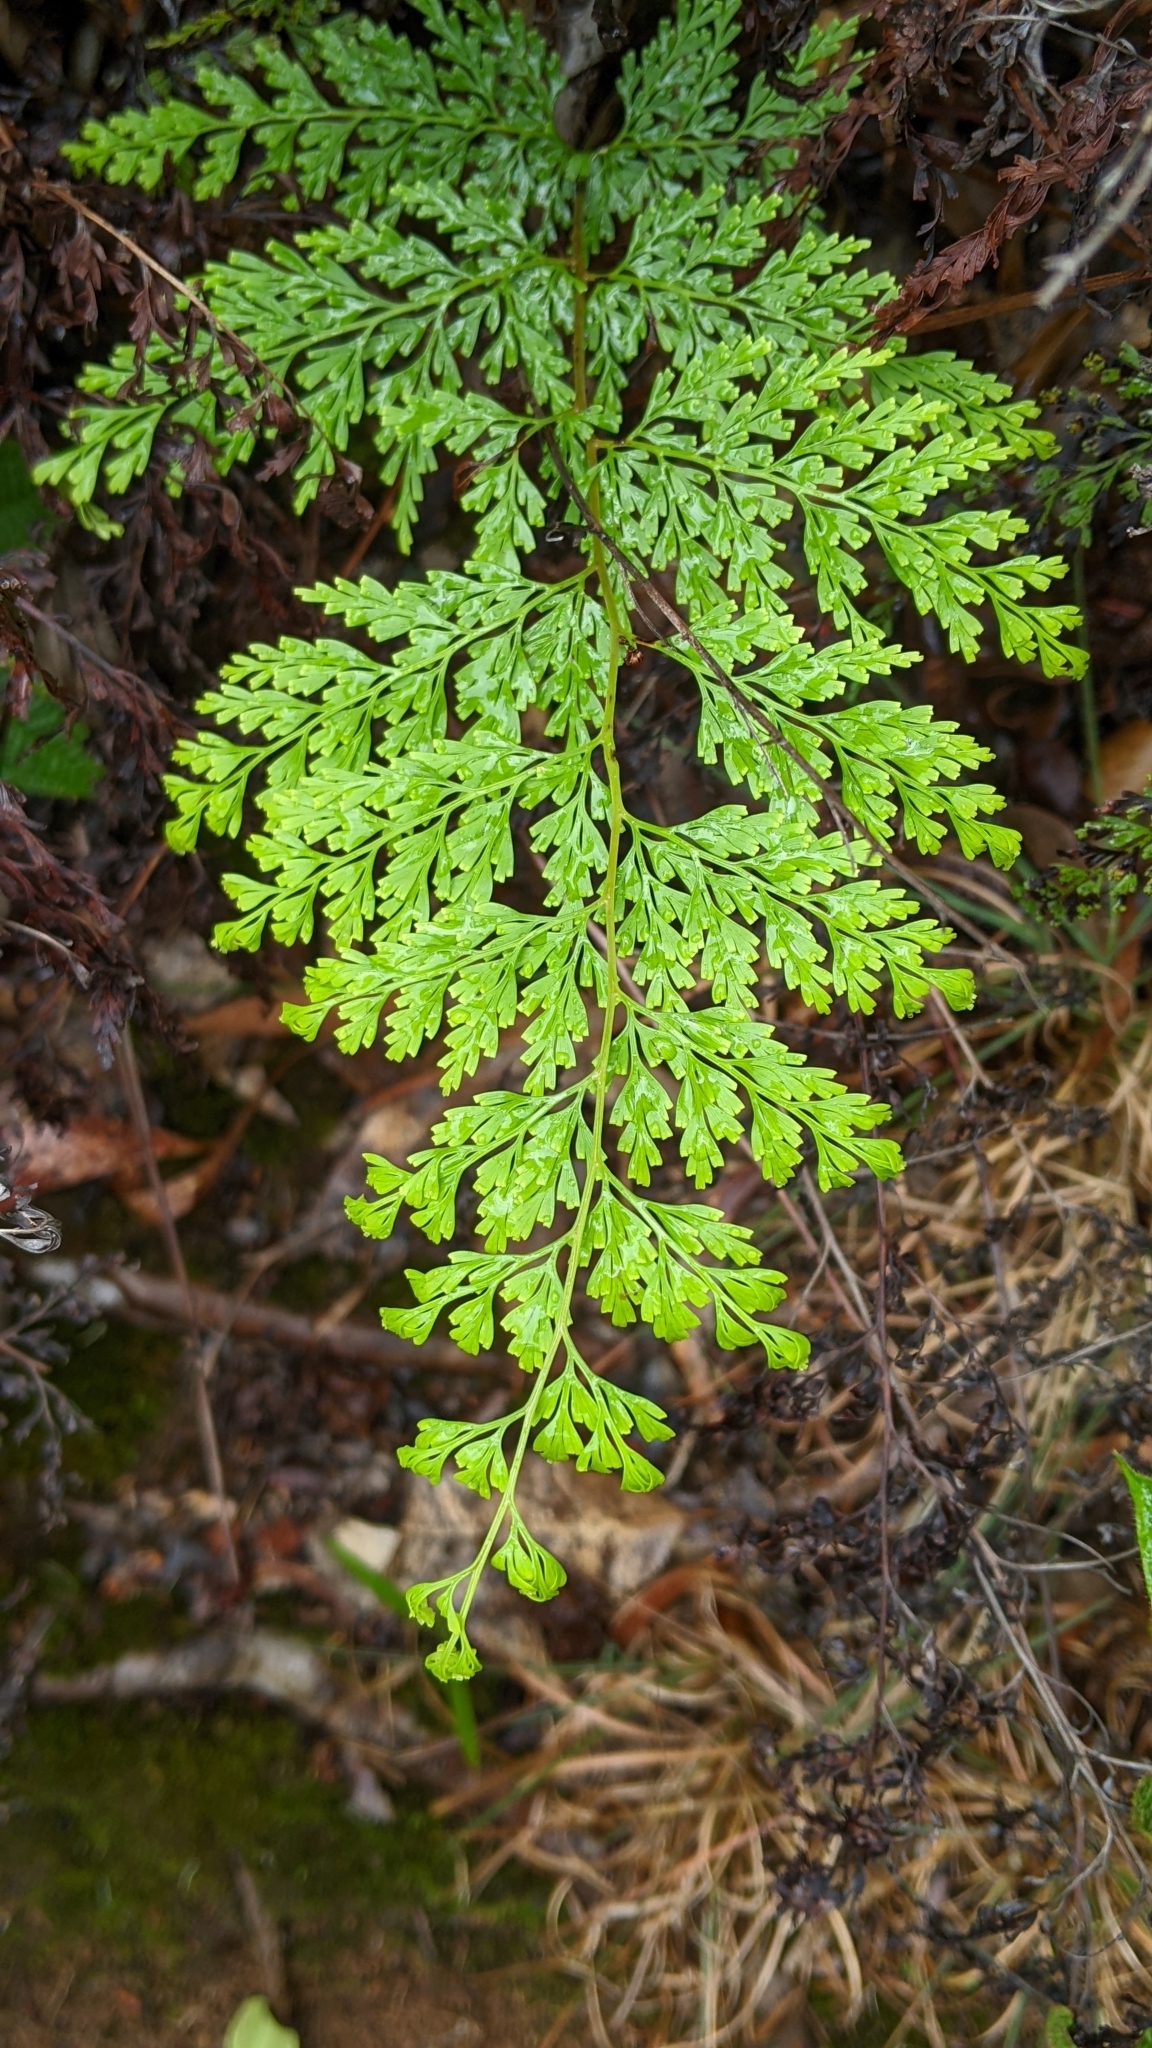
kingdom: Plantae
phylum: Tracheophyta
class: Polypodiopsida
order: Polypodiales
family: Lindsaeaceae
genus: Odontosoria
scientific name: Odontosoria chinensis
